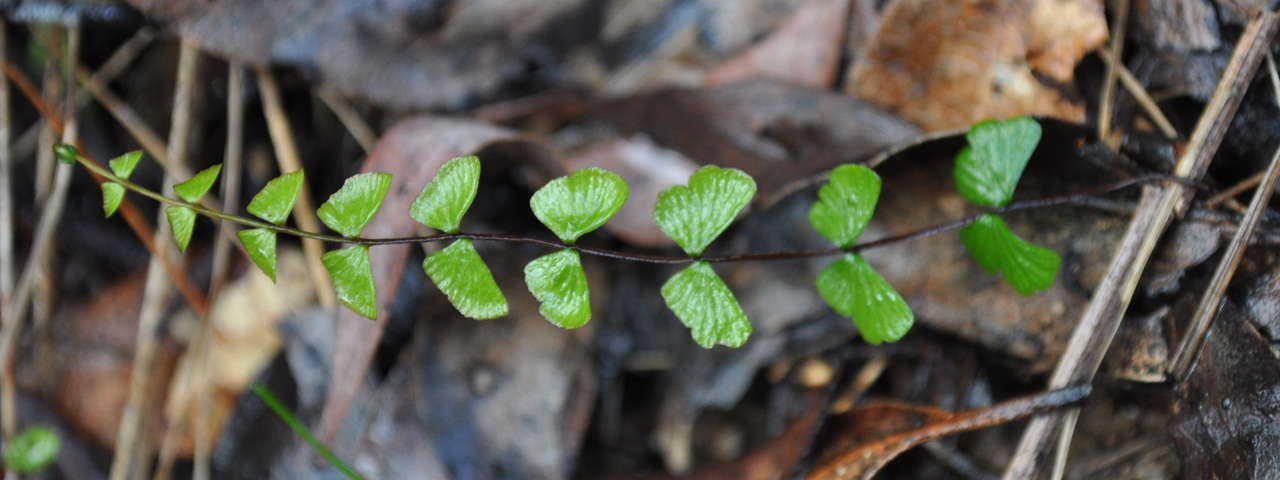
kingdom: Plantae
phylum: Tracheophyta
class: Polypodiopsida
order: Polypodiales
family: Lindsaeaceae
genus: Lindsaea
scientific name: Lindsaea linearis
